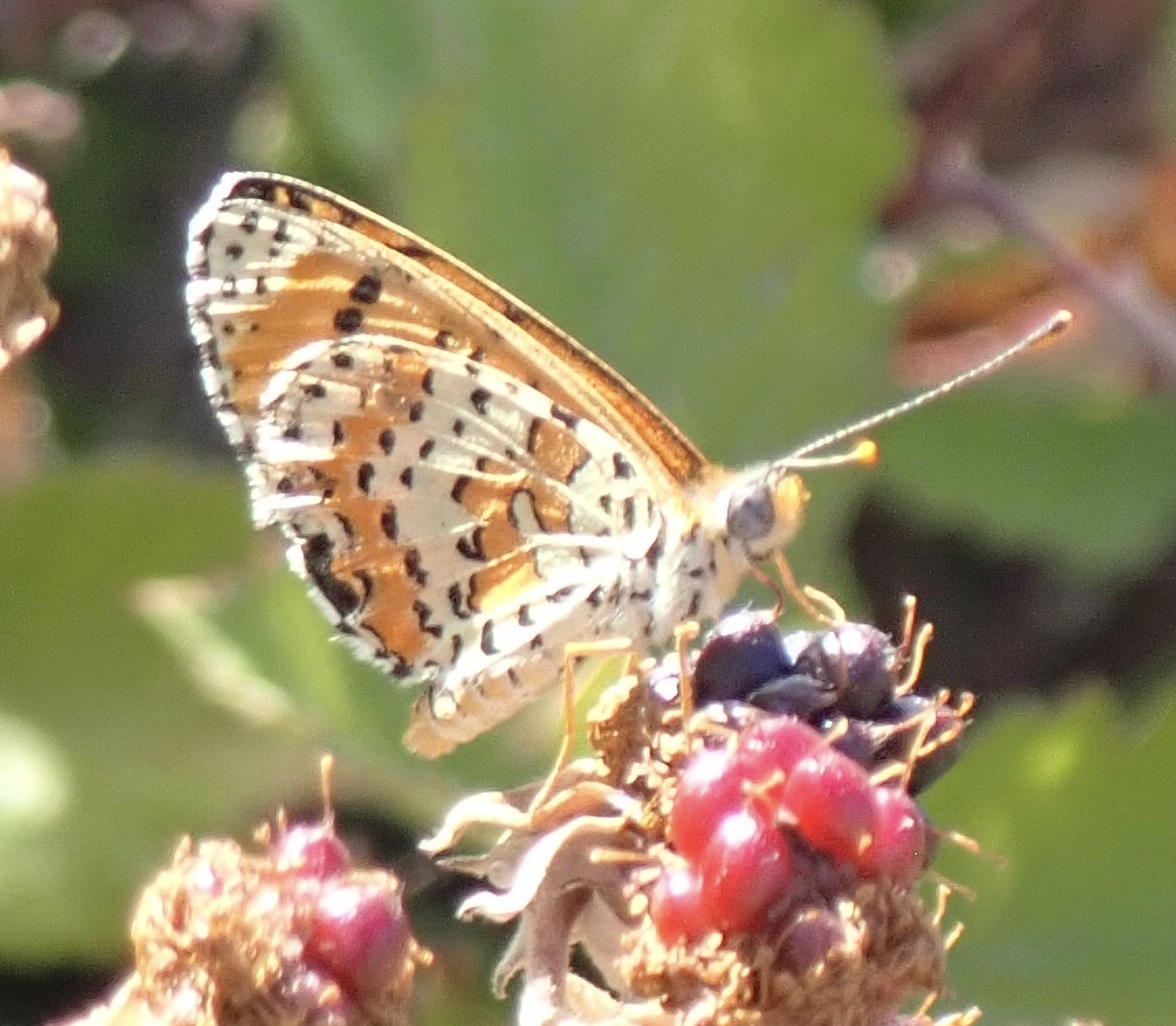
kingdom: Animalia
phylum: Arthropoda
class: Insecta
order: Lepidoptera
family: Nymphalidae
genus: Melitaea
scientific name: Melitaea didyma
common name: Spotted fritillary
